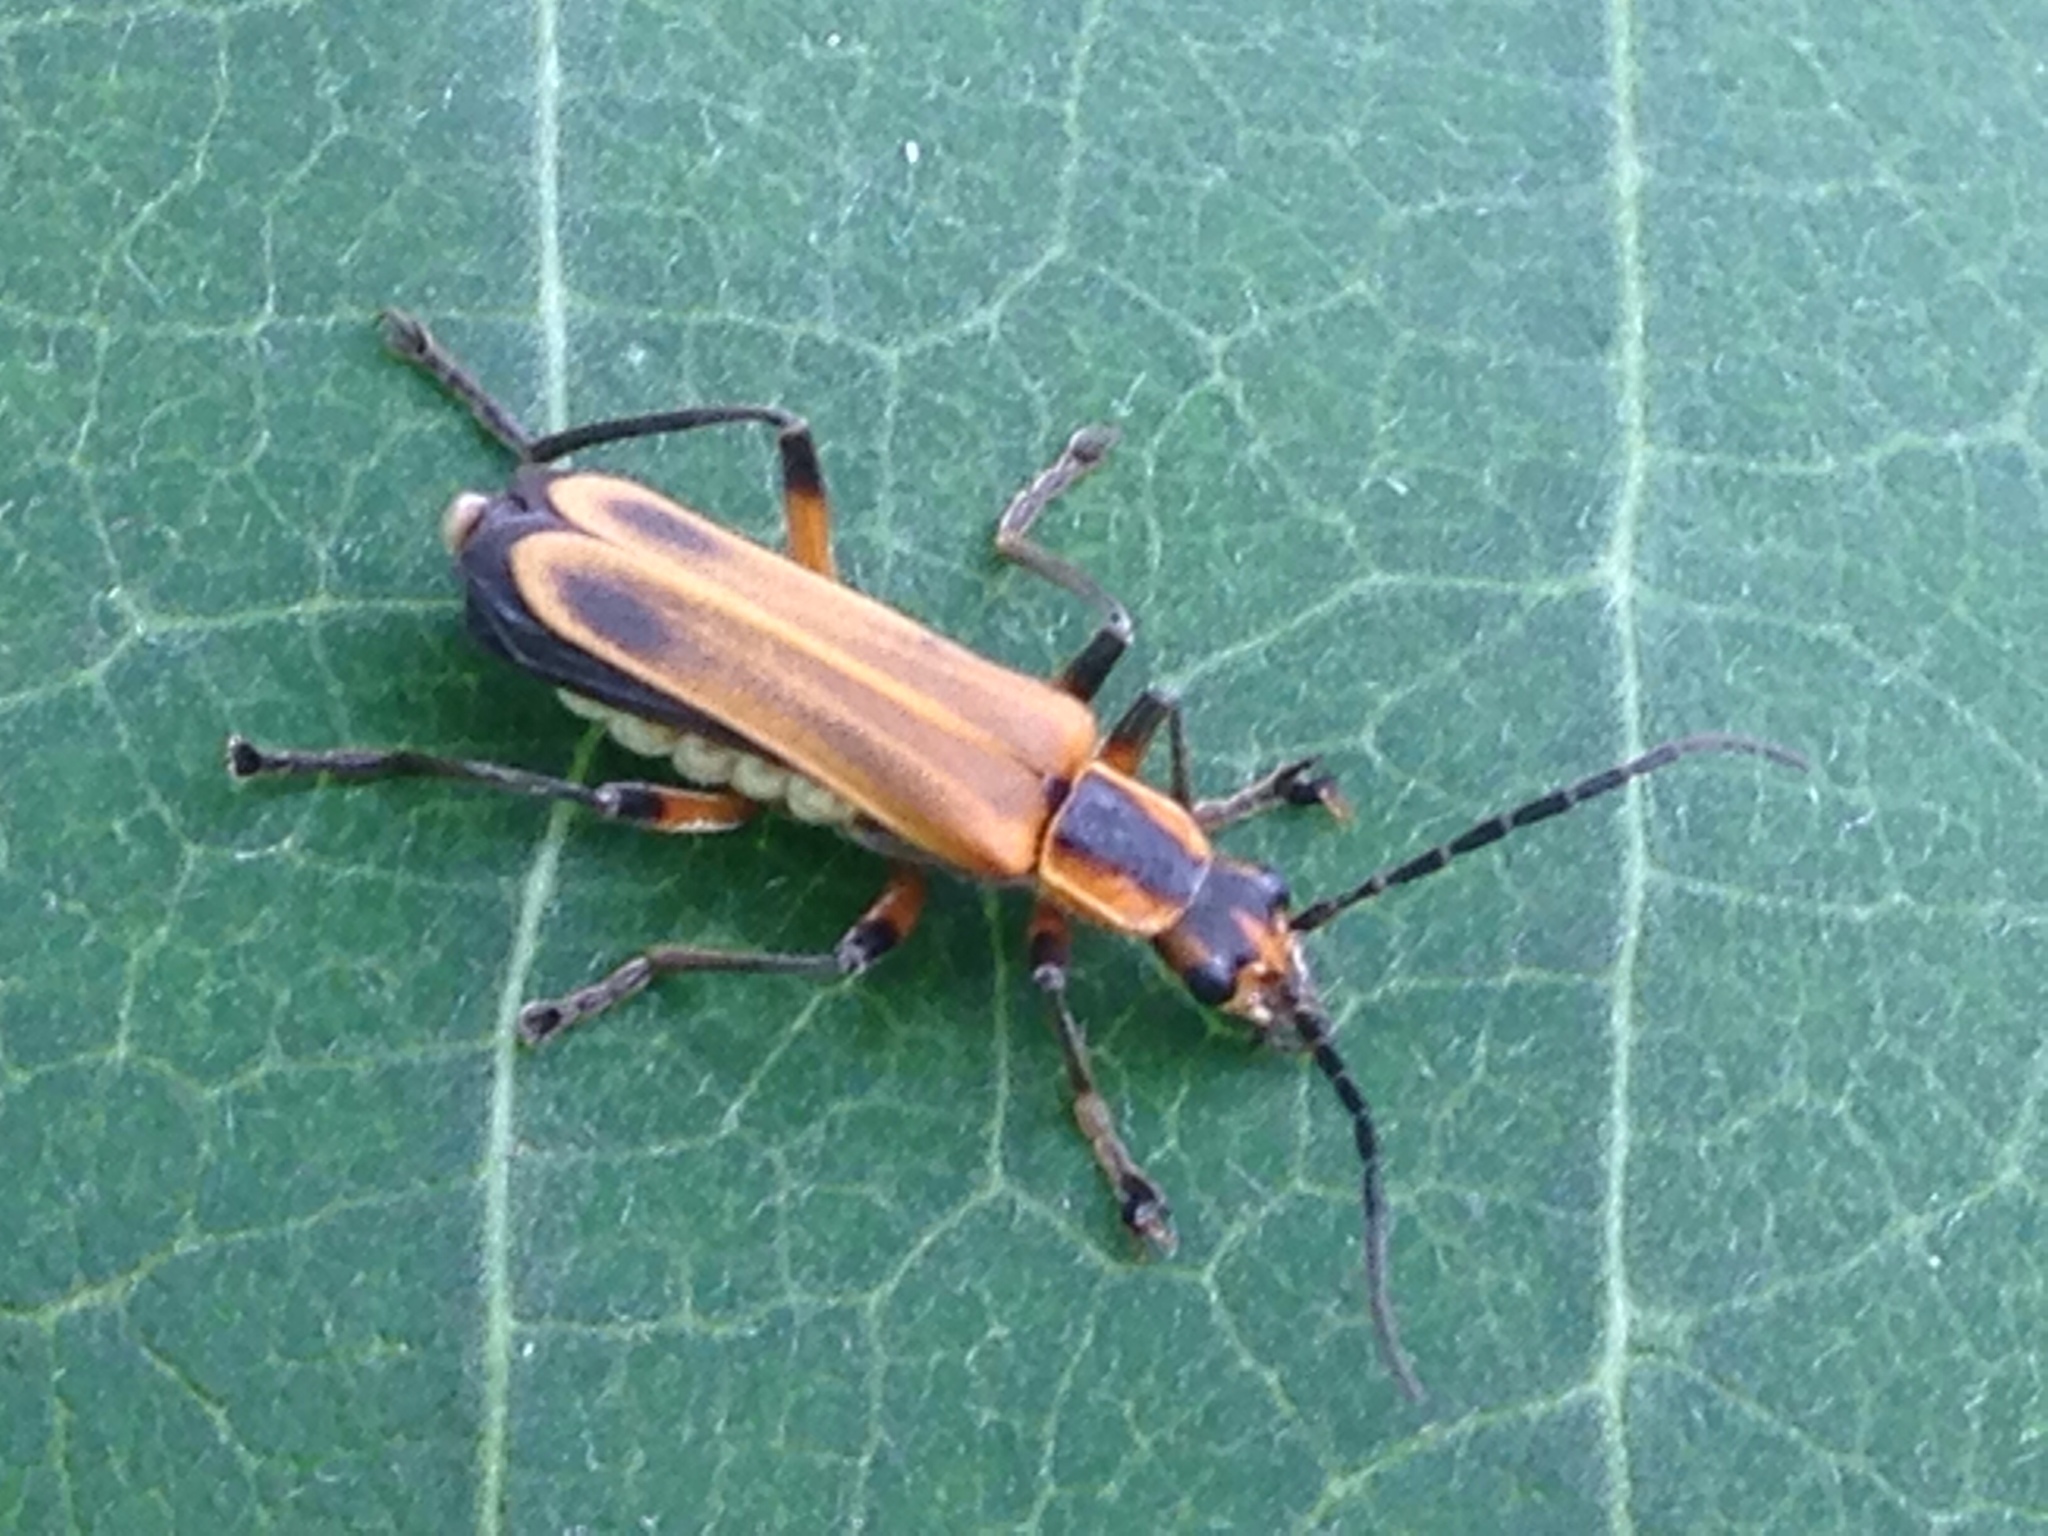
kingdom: Animalia
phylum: Arthropoda
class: Insecta
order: Coleoptera
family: Cantharidae
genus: Chauliognathus
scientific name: Chauliognathus marginatus
